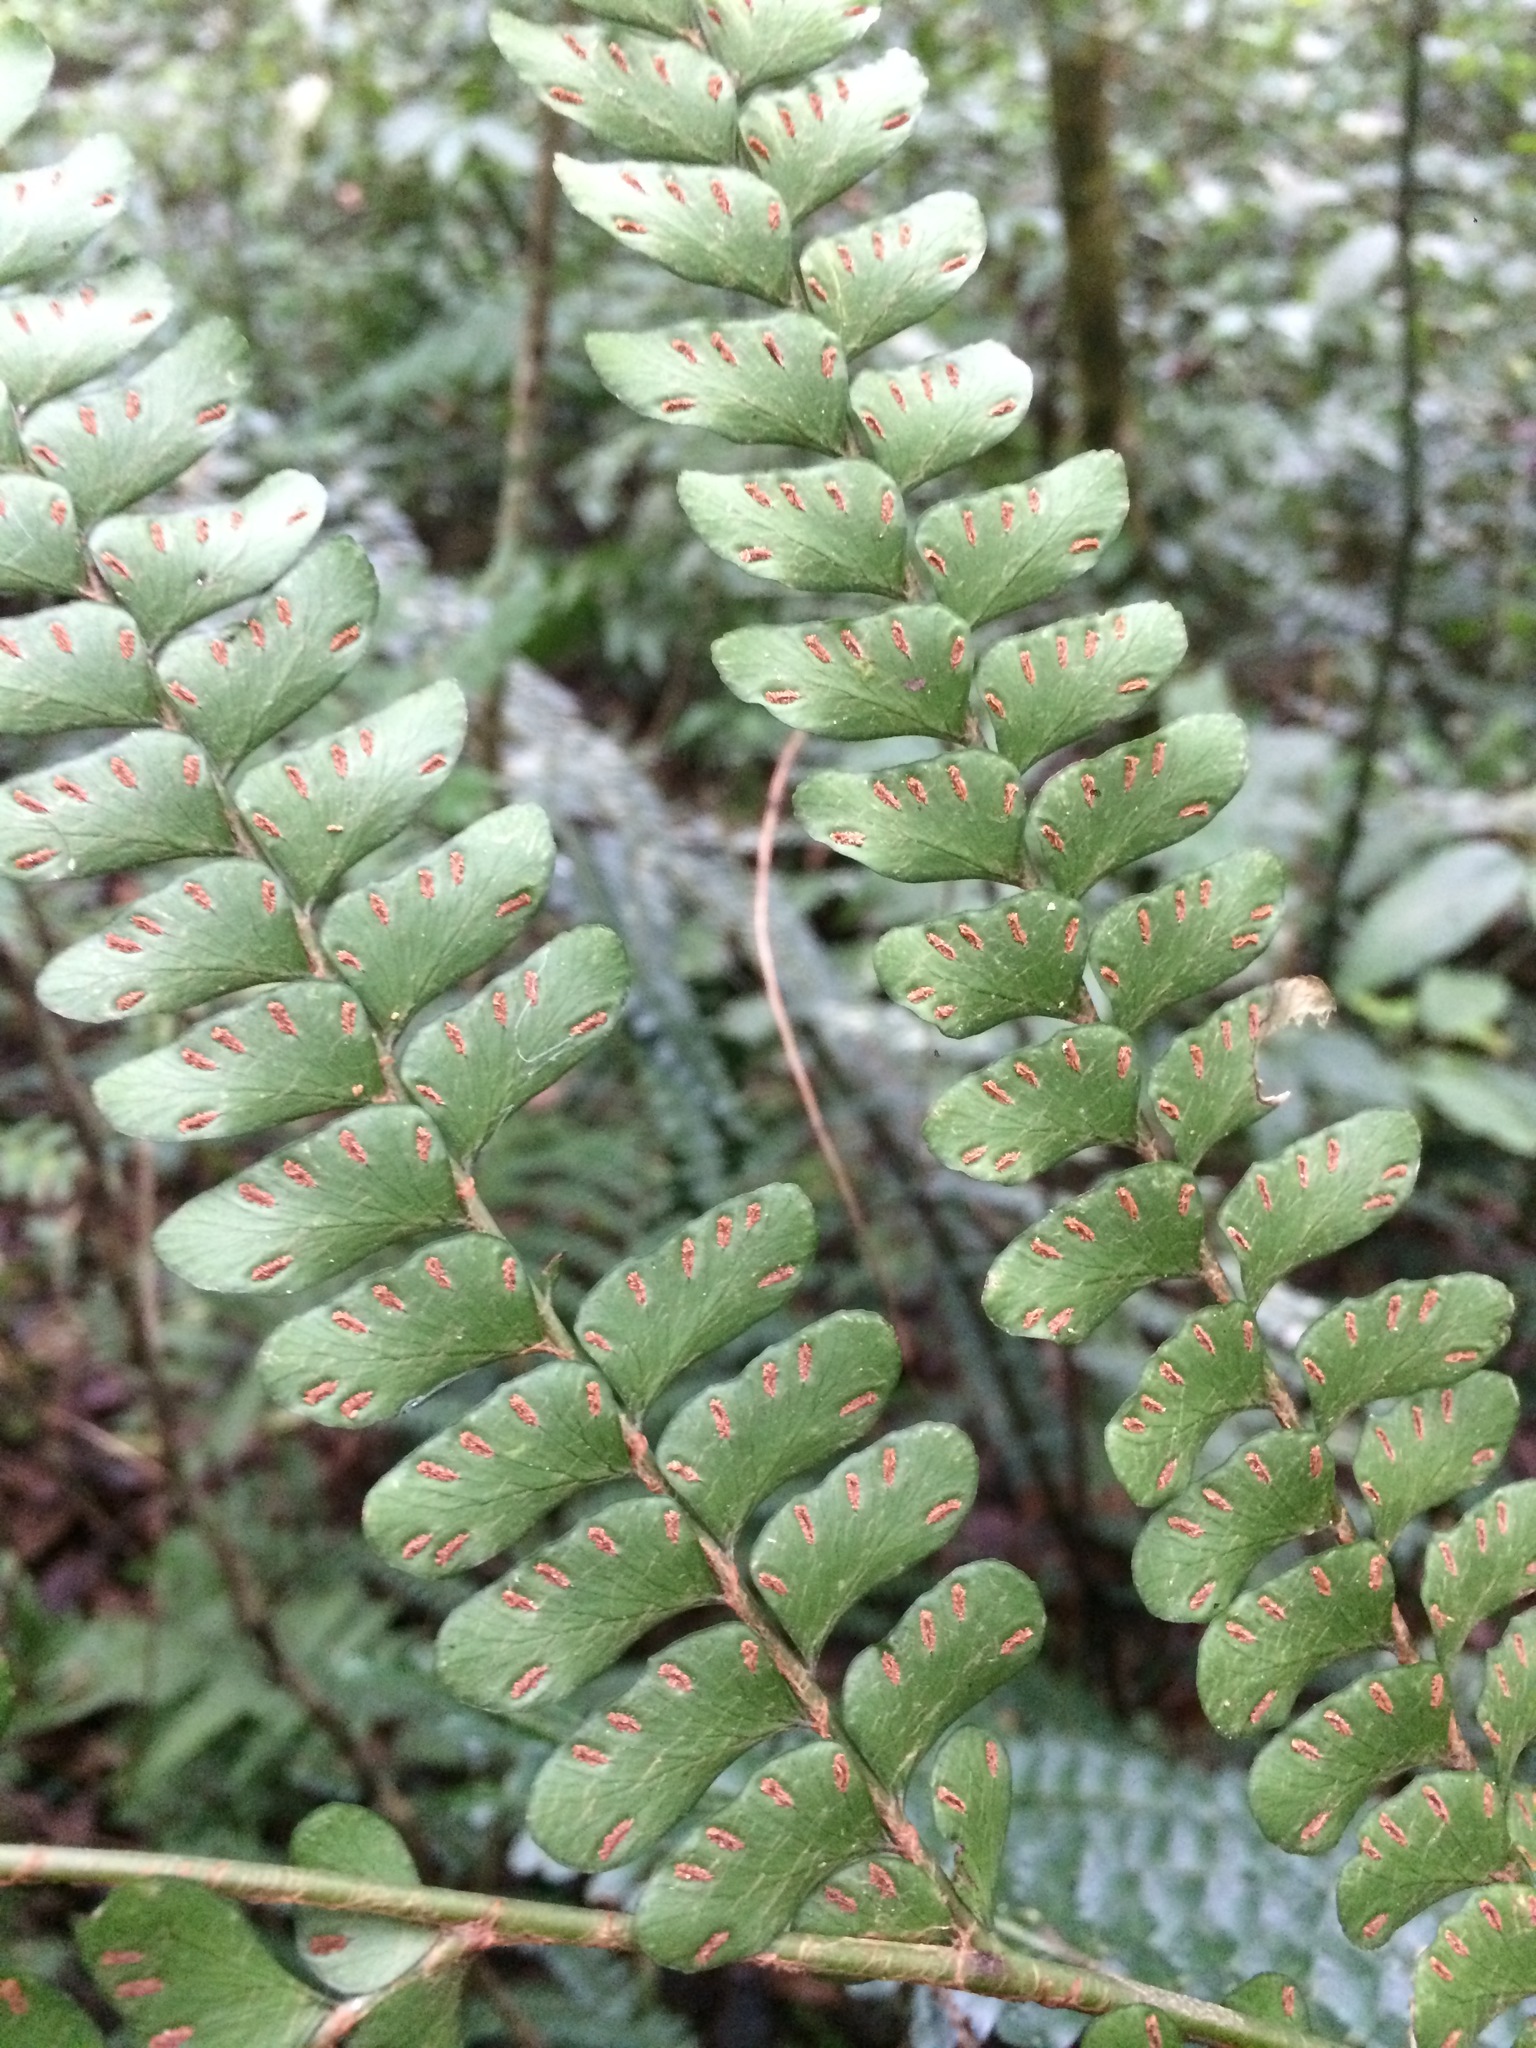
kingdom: Plantae
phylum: Tracheophyta
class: Polypodiopsida
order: Polypodiales
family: Didymochlaenaceae
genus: Didymochlaena
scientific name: Didymochlaena truncatula
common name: Mahogany fern
